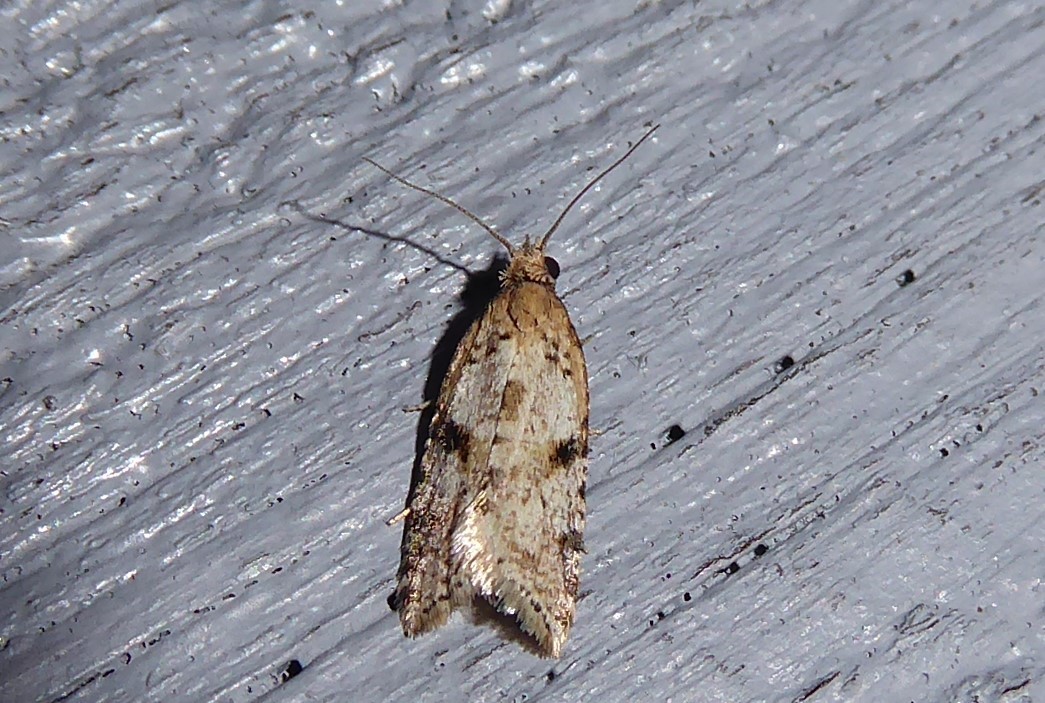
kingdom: Animalia
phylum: Arthropoda
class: Insecta
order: Lepidoptera
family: Tortricidae
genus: Capua
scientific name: Capua semiferana
